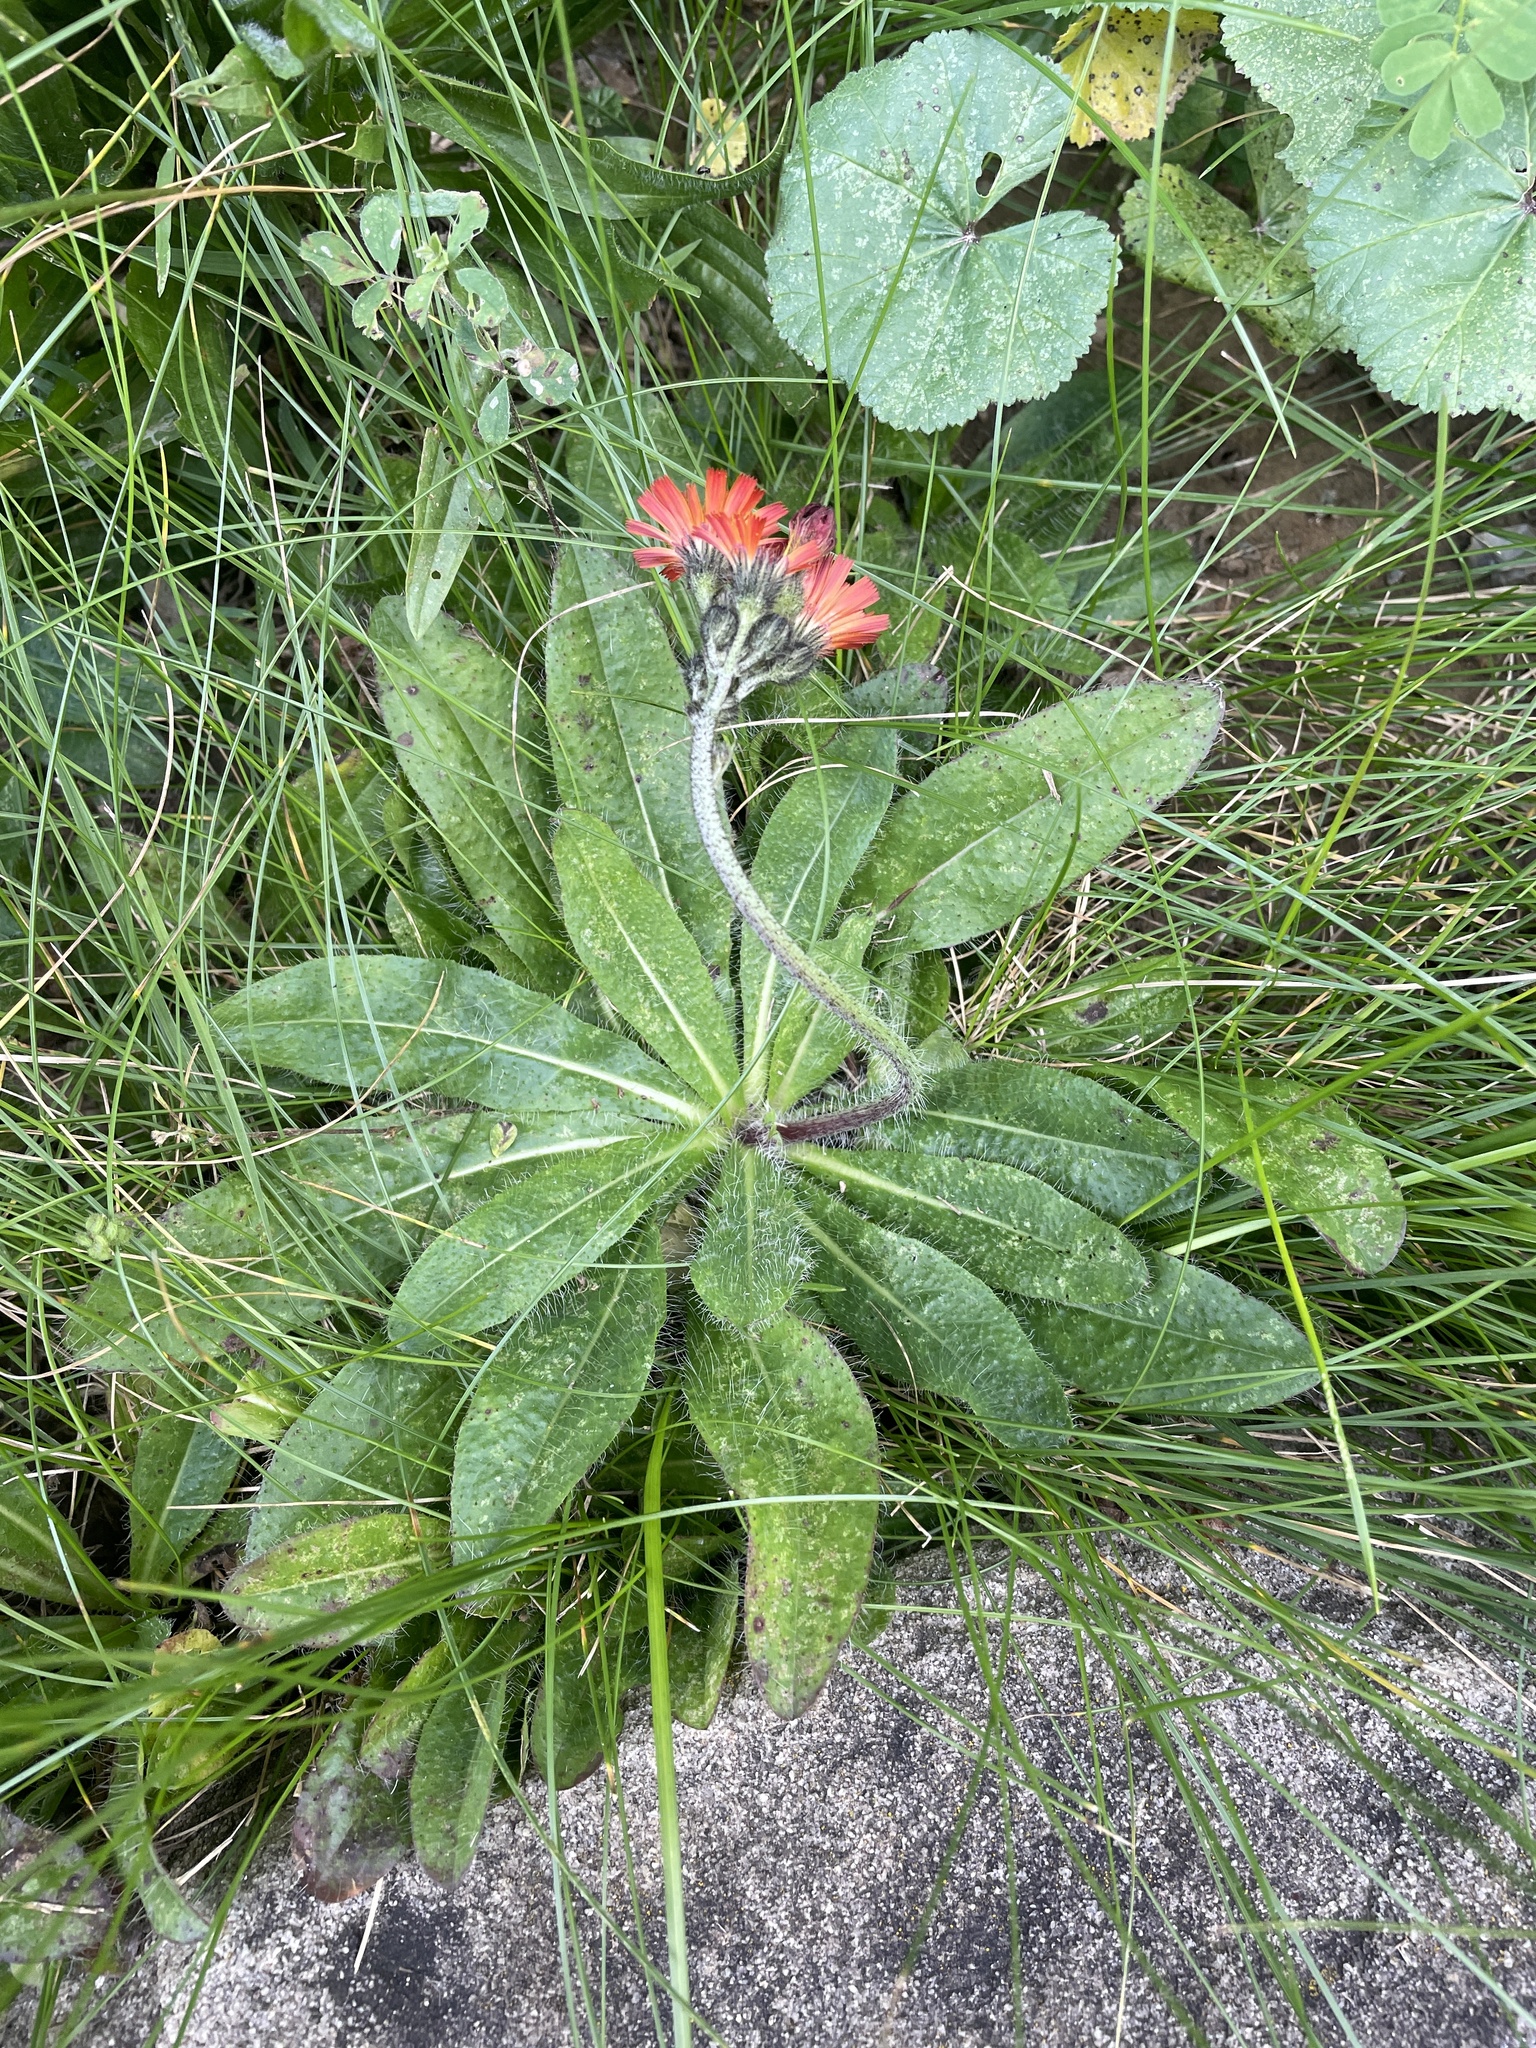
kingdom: Plantae
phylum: Tracheophyta
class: Magnoliopsida
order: Asterales
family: Asteraceae
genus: Pilosella
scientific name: Pilosella aurantiaca
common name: Fox-and-cubs
